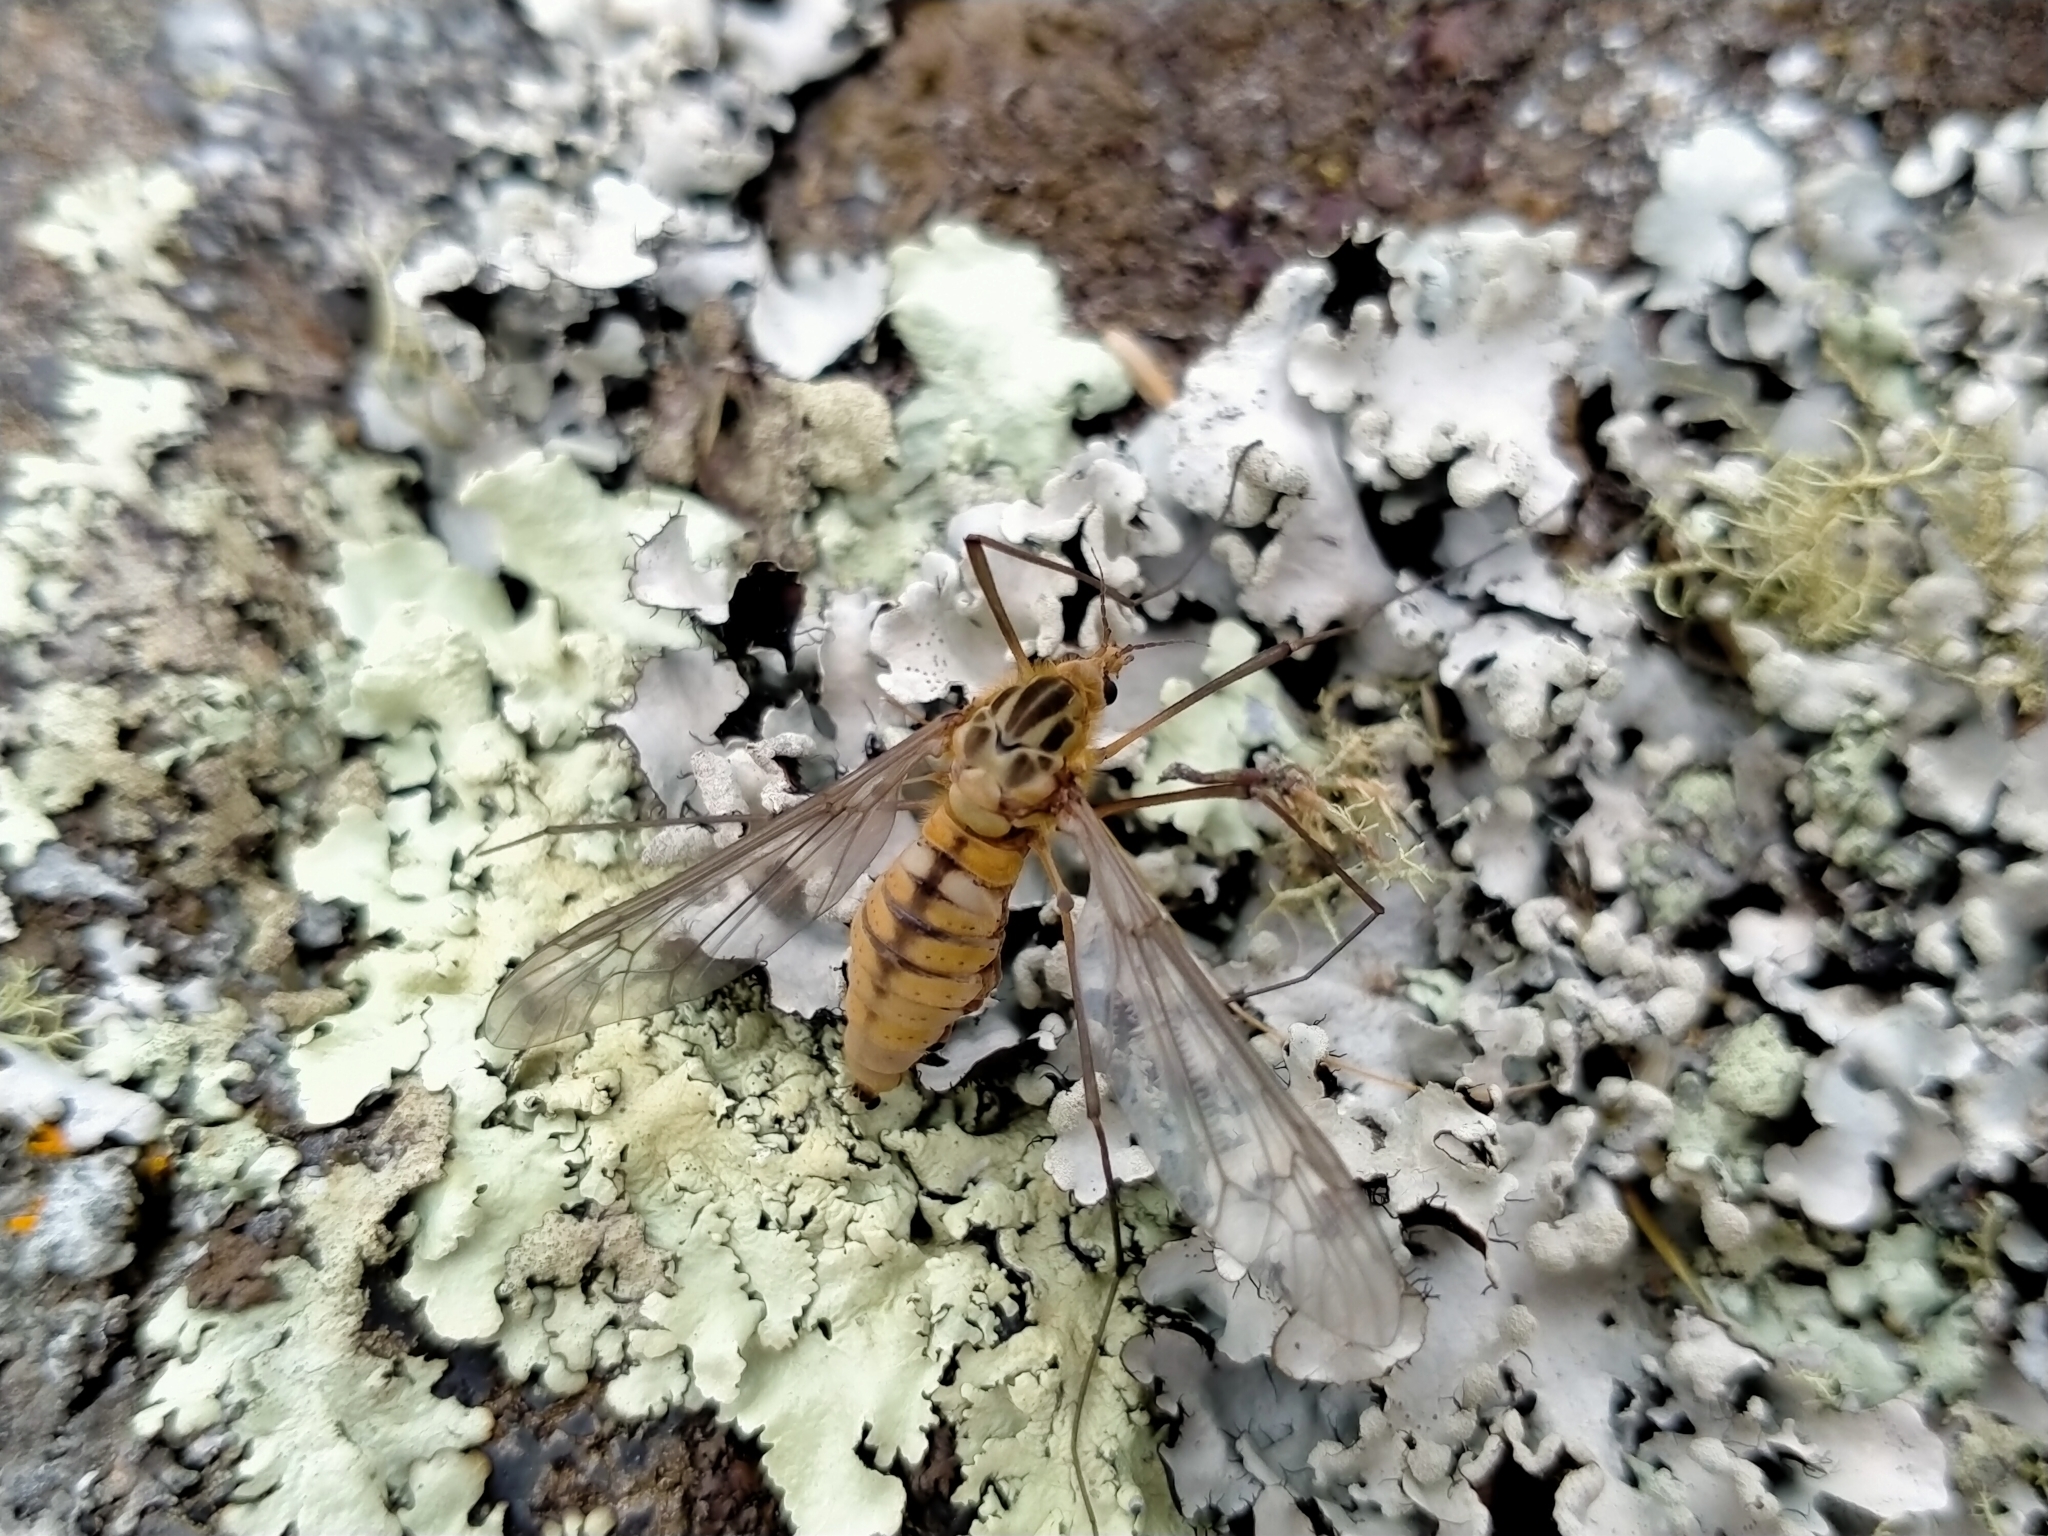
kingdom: Animalia
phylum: Arthropoda
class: Insecta
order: Diptera
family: Tipulidae
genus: Leptotarsus
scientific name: Leptotarsus vulpinus
